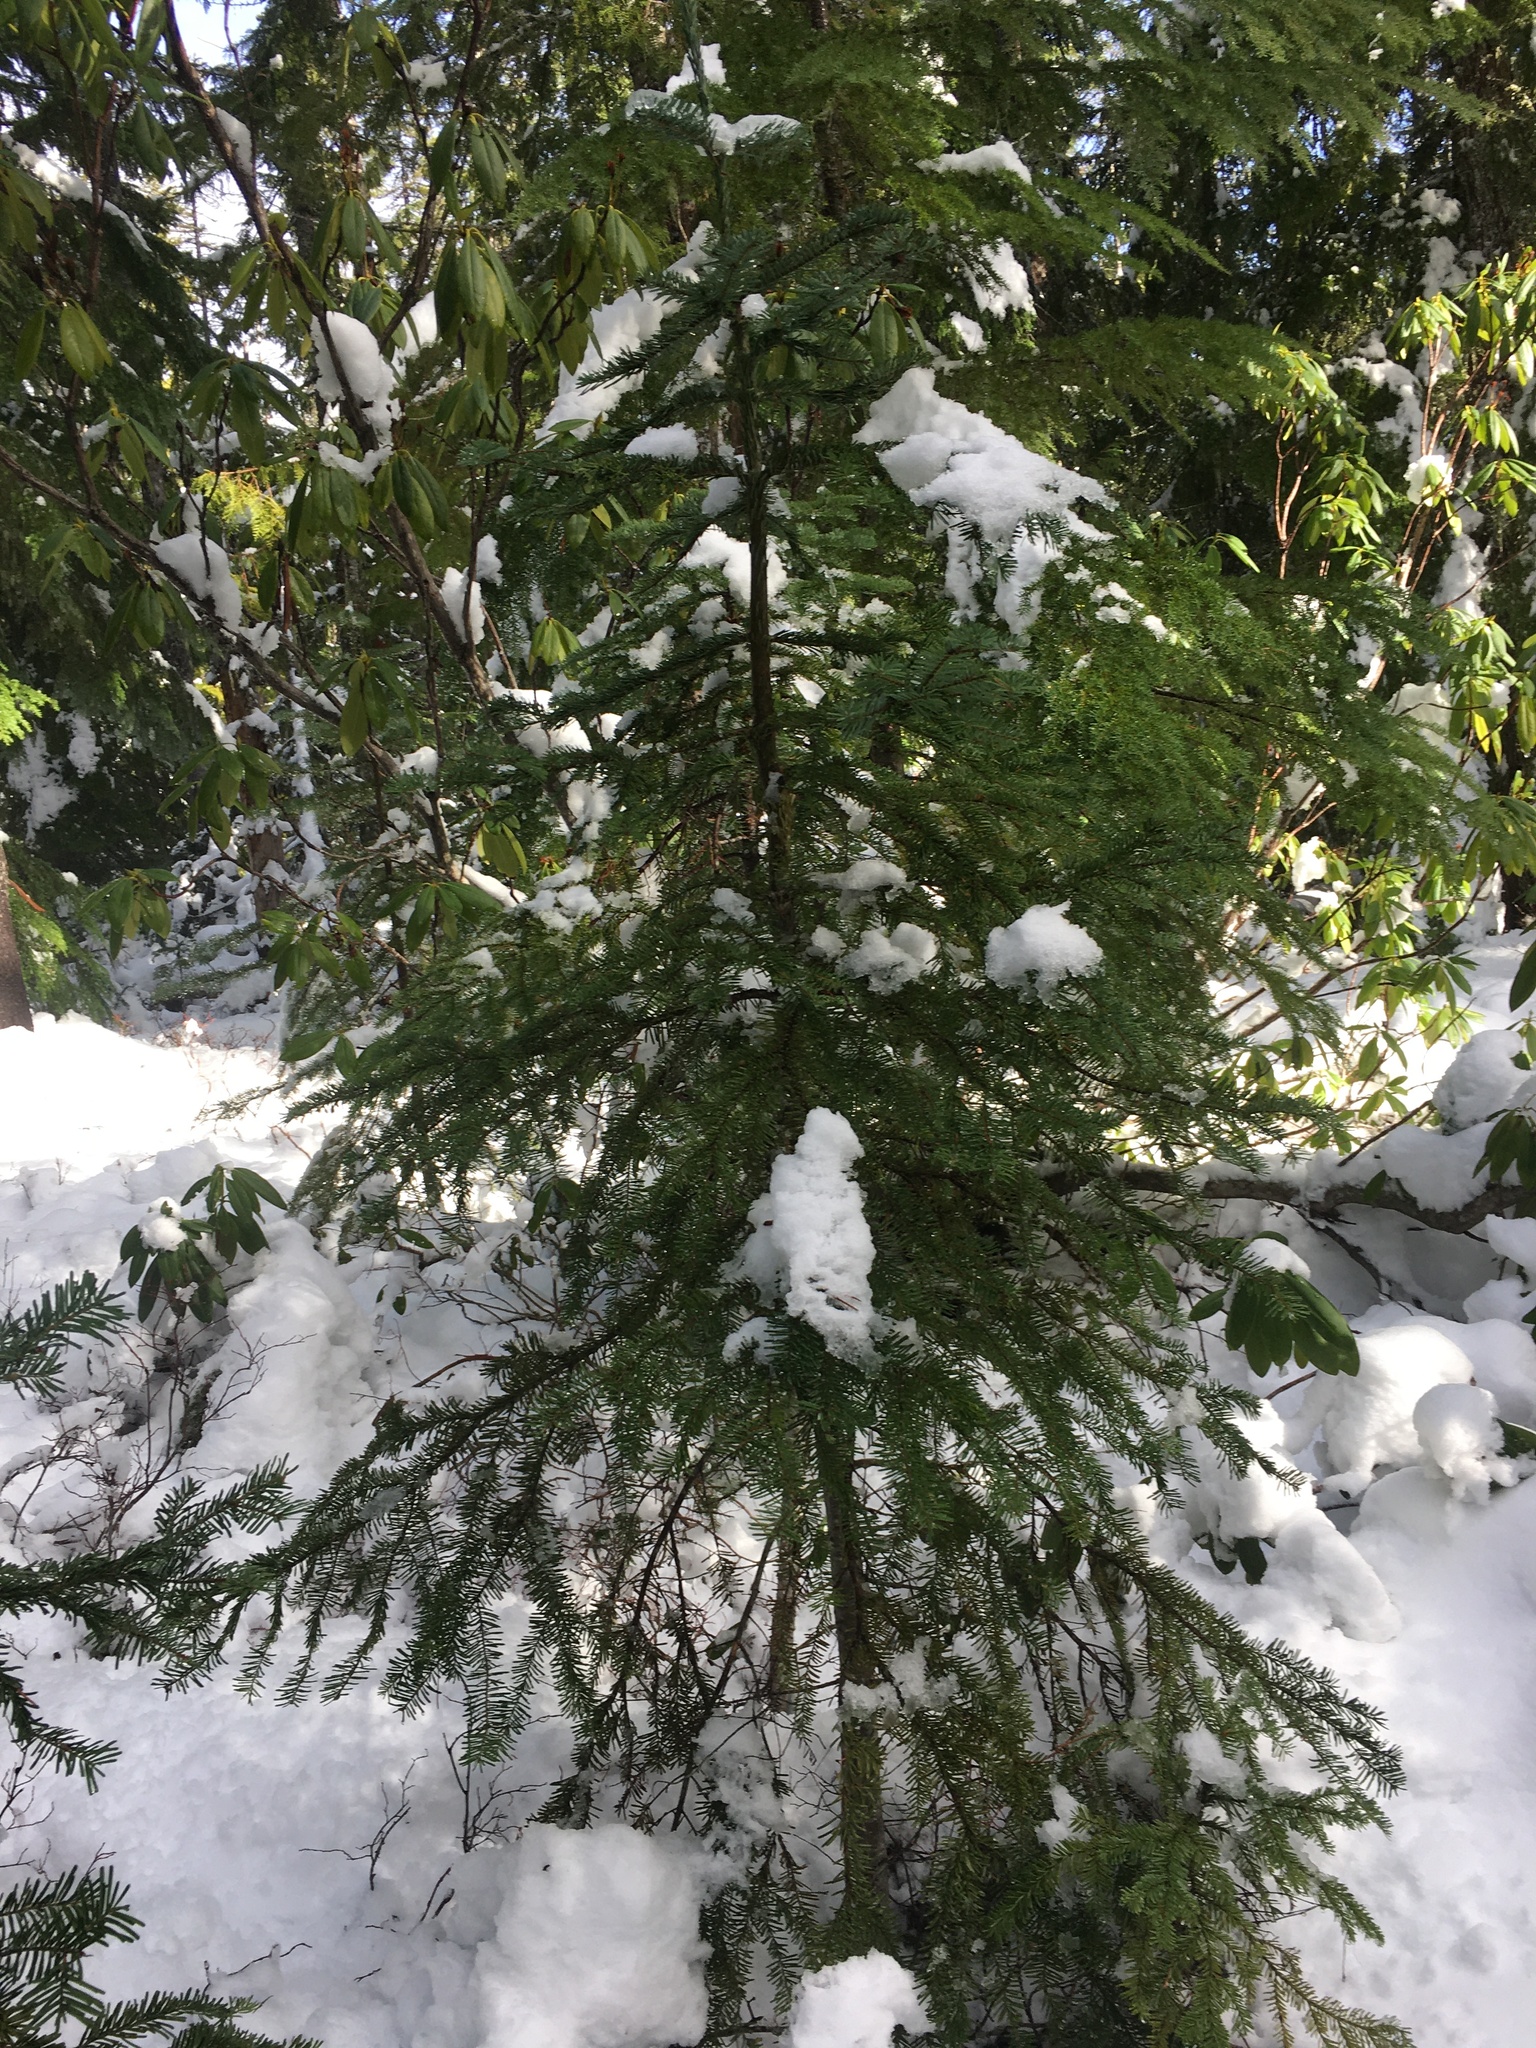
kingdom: Plantae
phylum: Tracheophyta
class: Pinopsida
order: Pinales
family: Pinaceae
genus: Abies
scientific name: Abies amabilis
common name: Pacific silver fir
